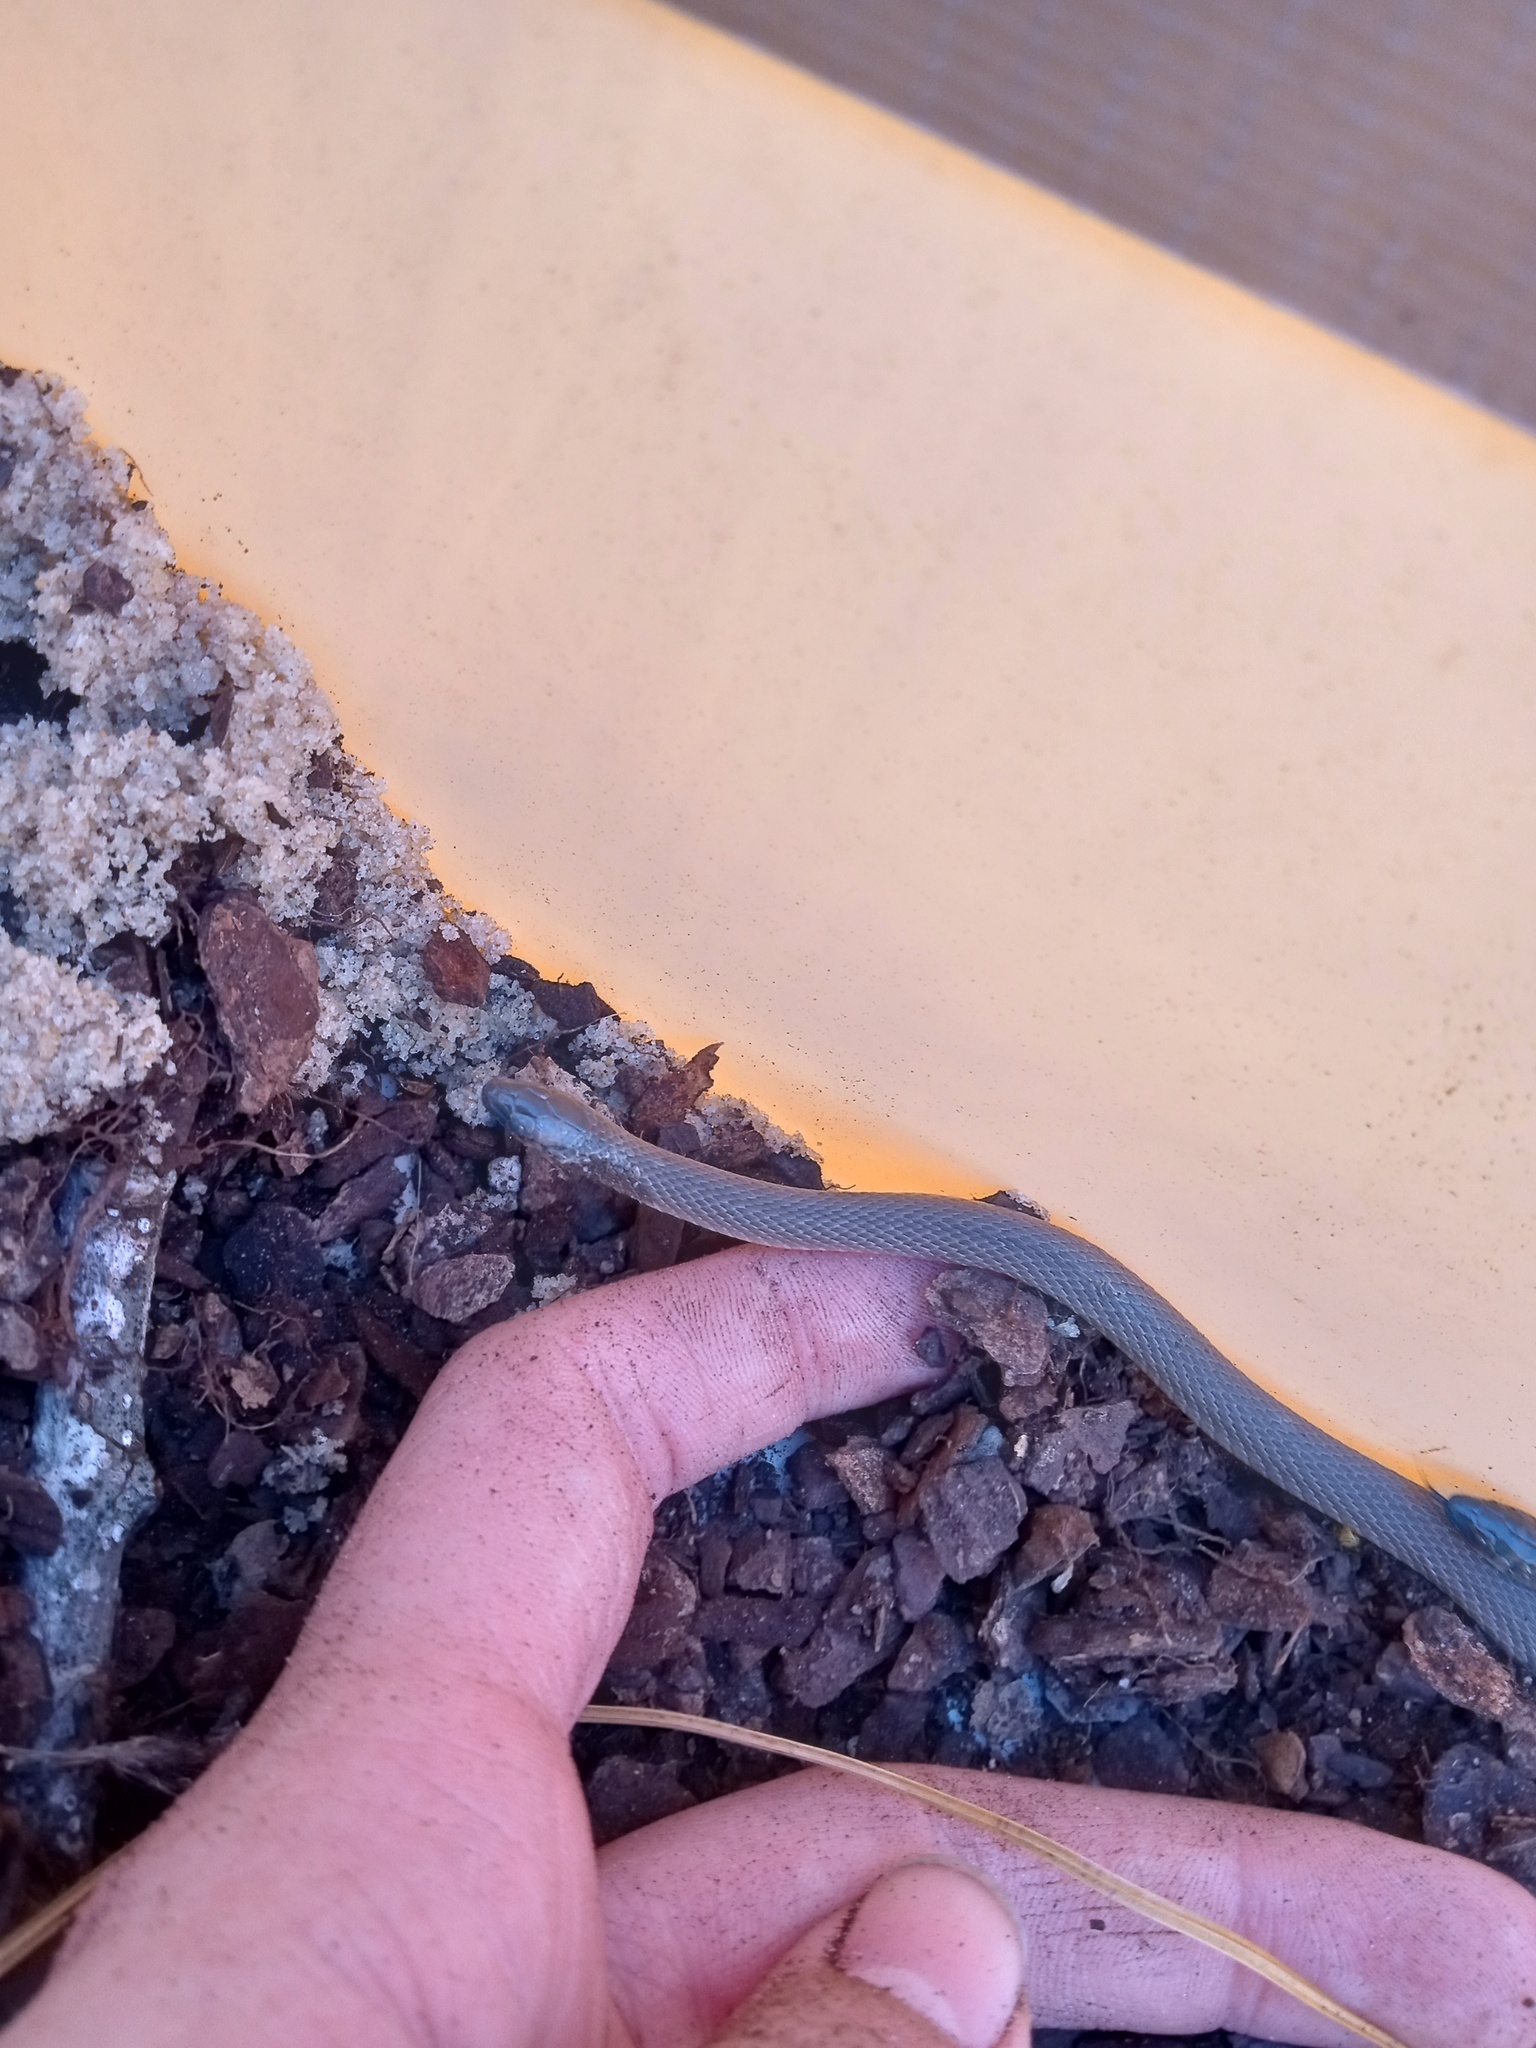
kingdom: Animalia
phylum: Chordata
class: Squamata
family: Colubridae
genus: Haldea
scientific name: Haldea striatula
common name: Rough earth snake
